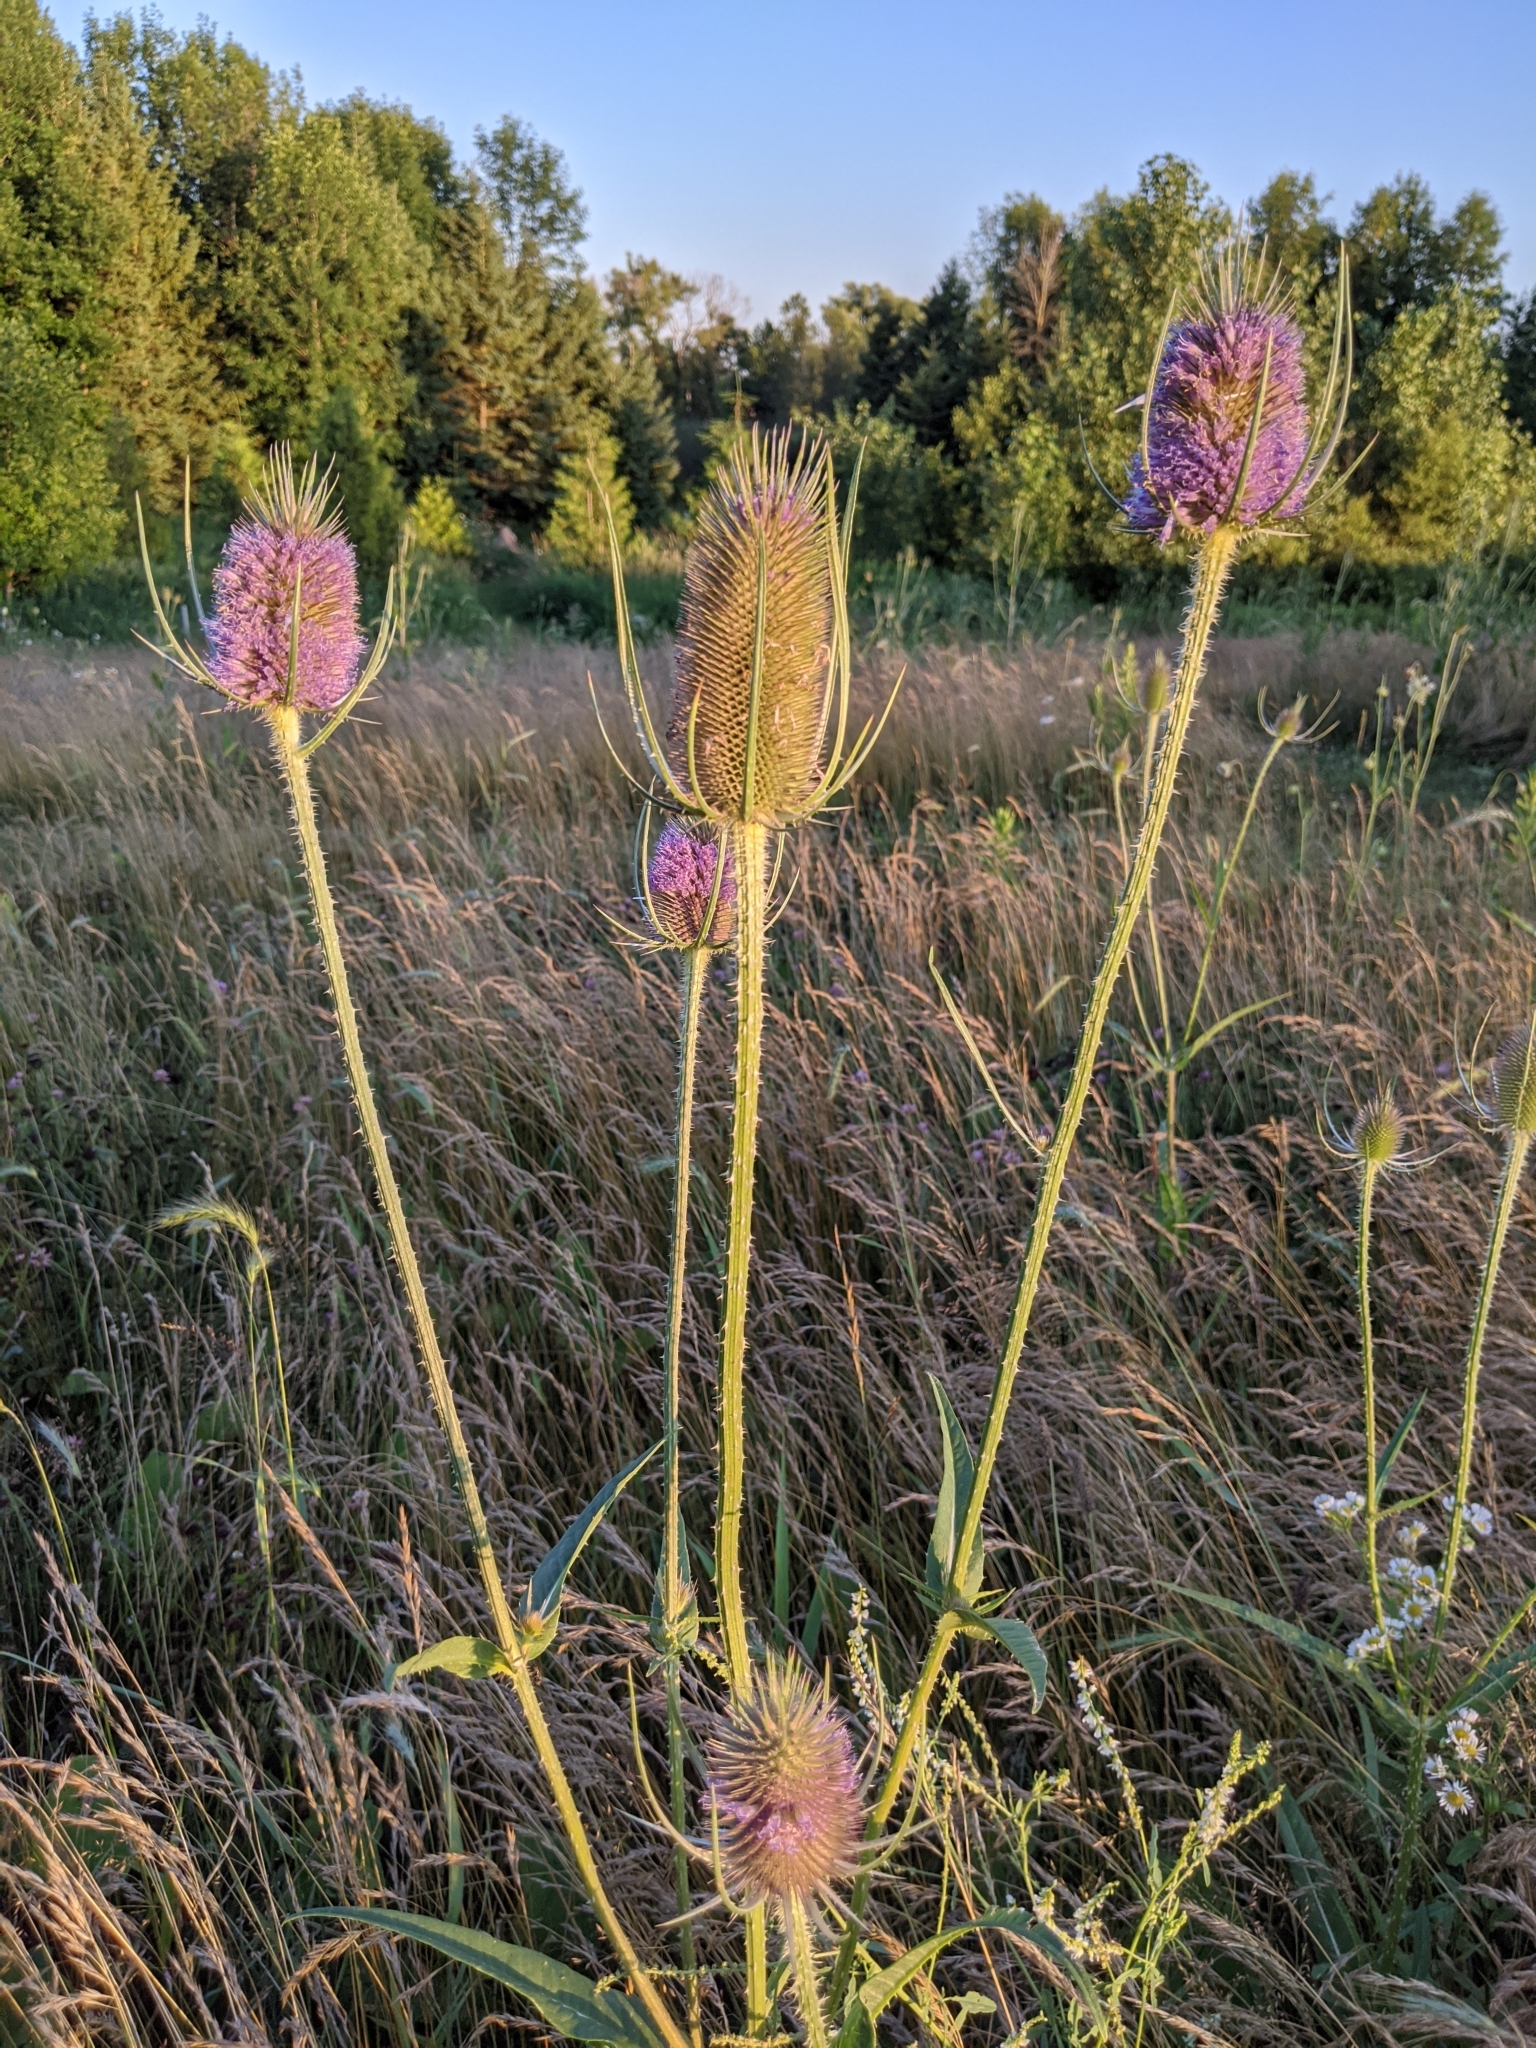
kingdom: Plantae
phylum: Tracheophyta
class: Magnoliopsida
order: Dipsacales
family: Caprifoliaceae
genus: Dipsacus
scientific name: Dipsacus fullonum
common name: Teasel
